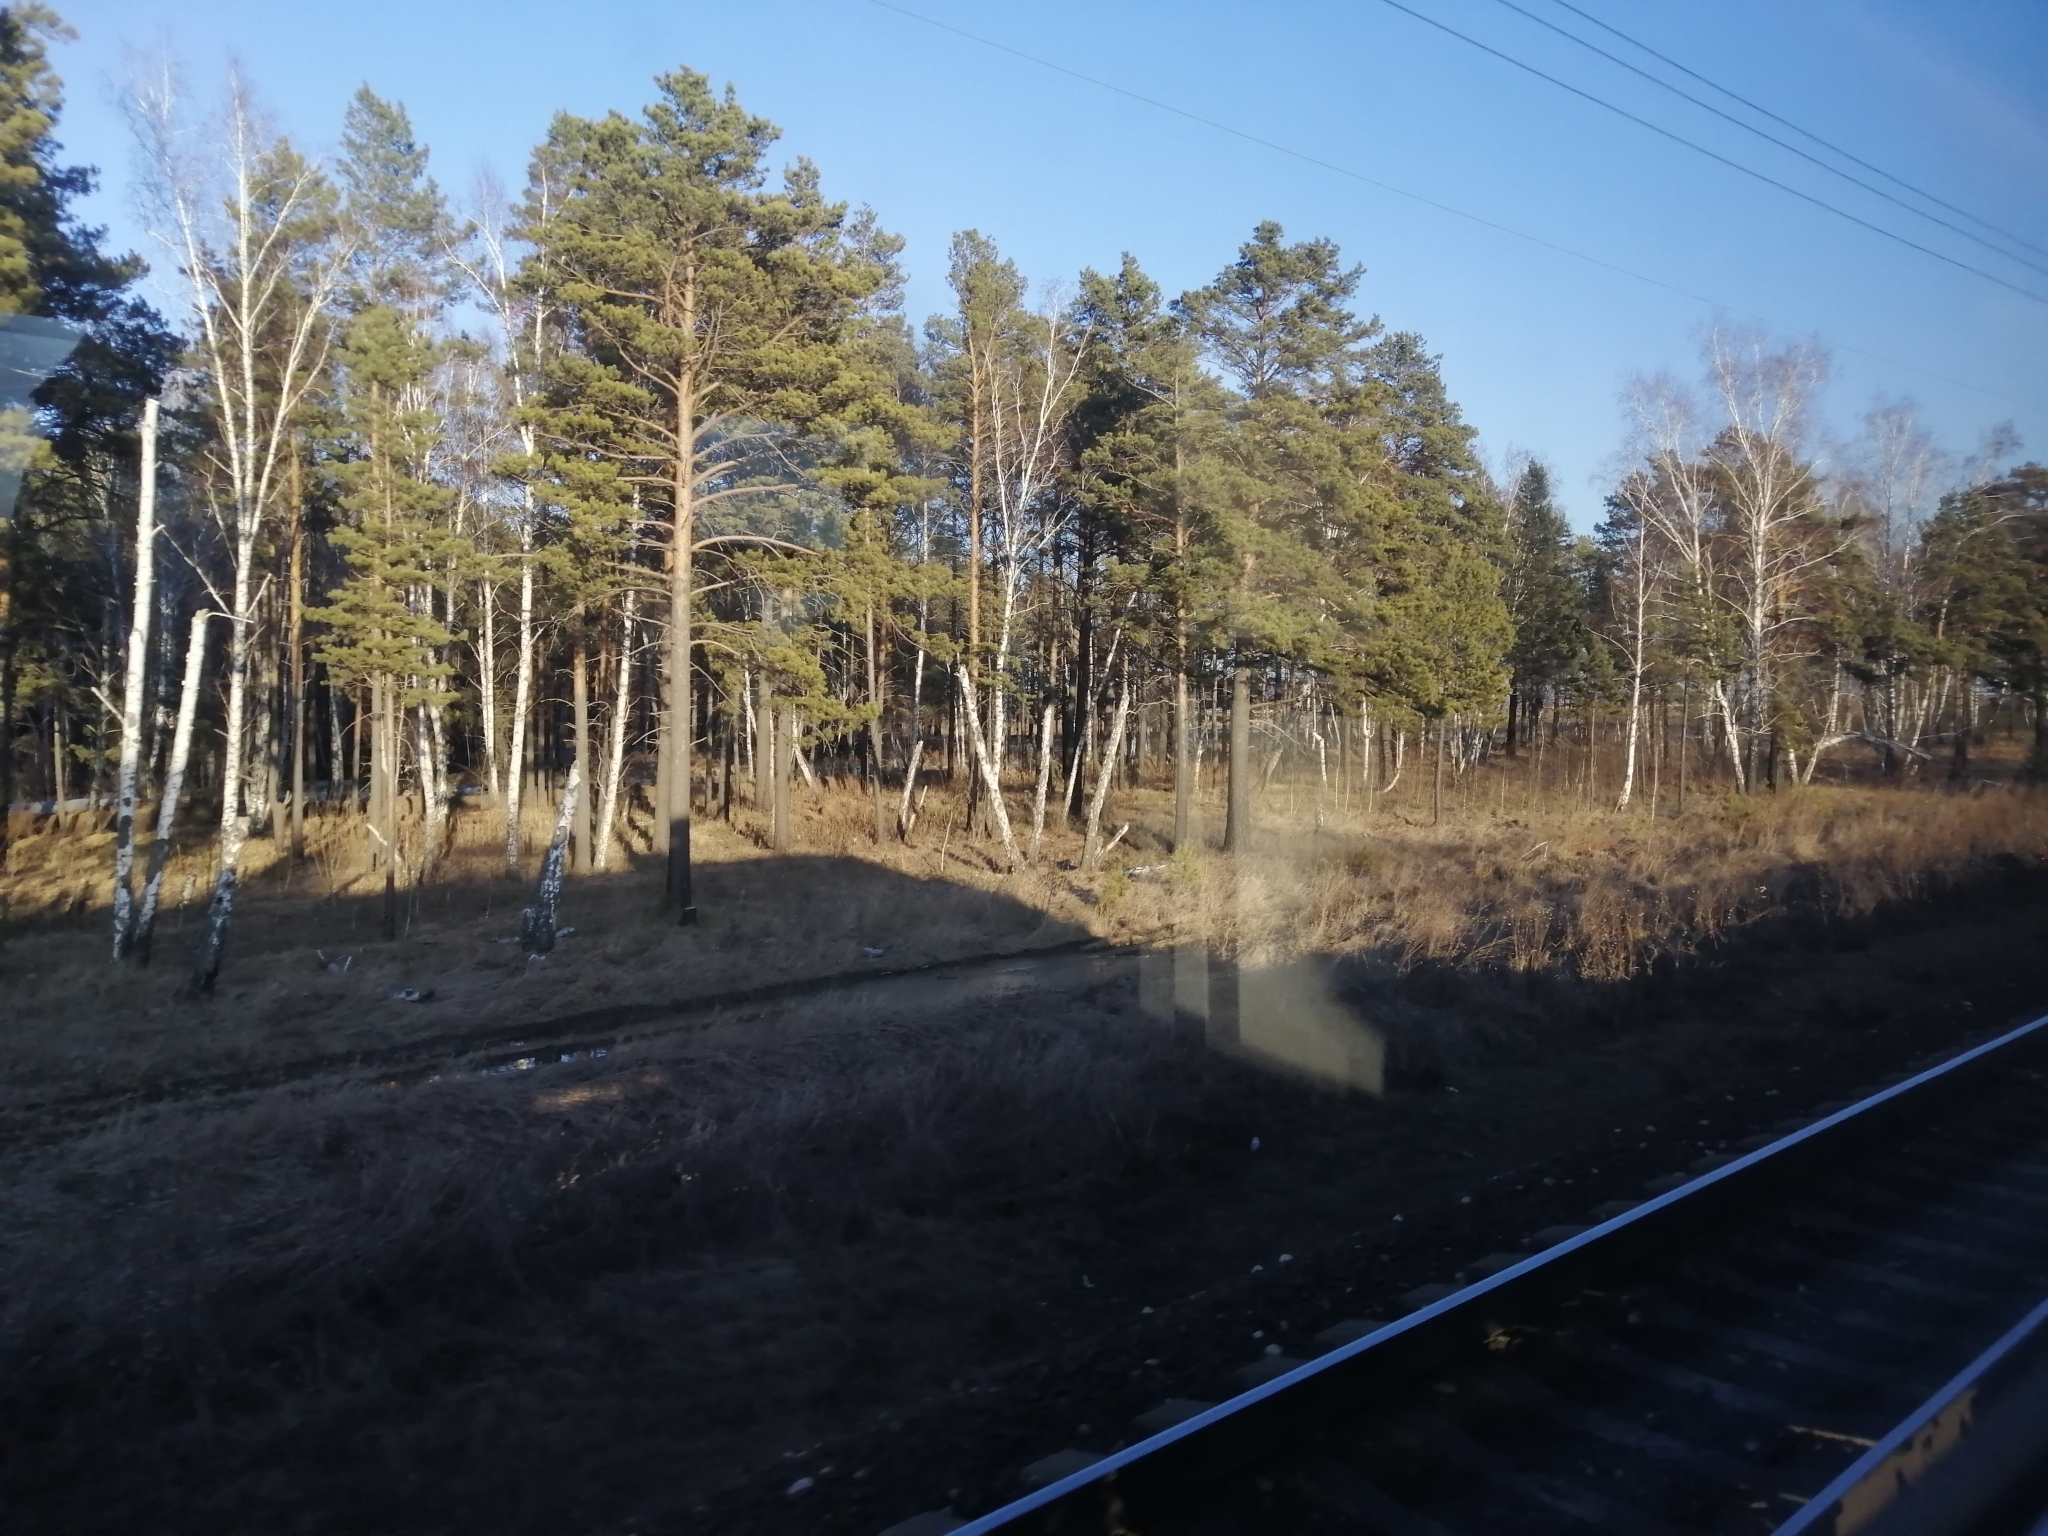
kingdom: Plantae
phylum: Tracheophyta
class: Pinopsida
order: Pinales
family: Pinaceae
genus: Pinus
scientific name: Pinus sylvestris
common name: Scots pine
